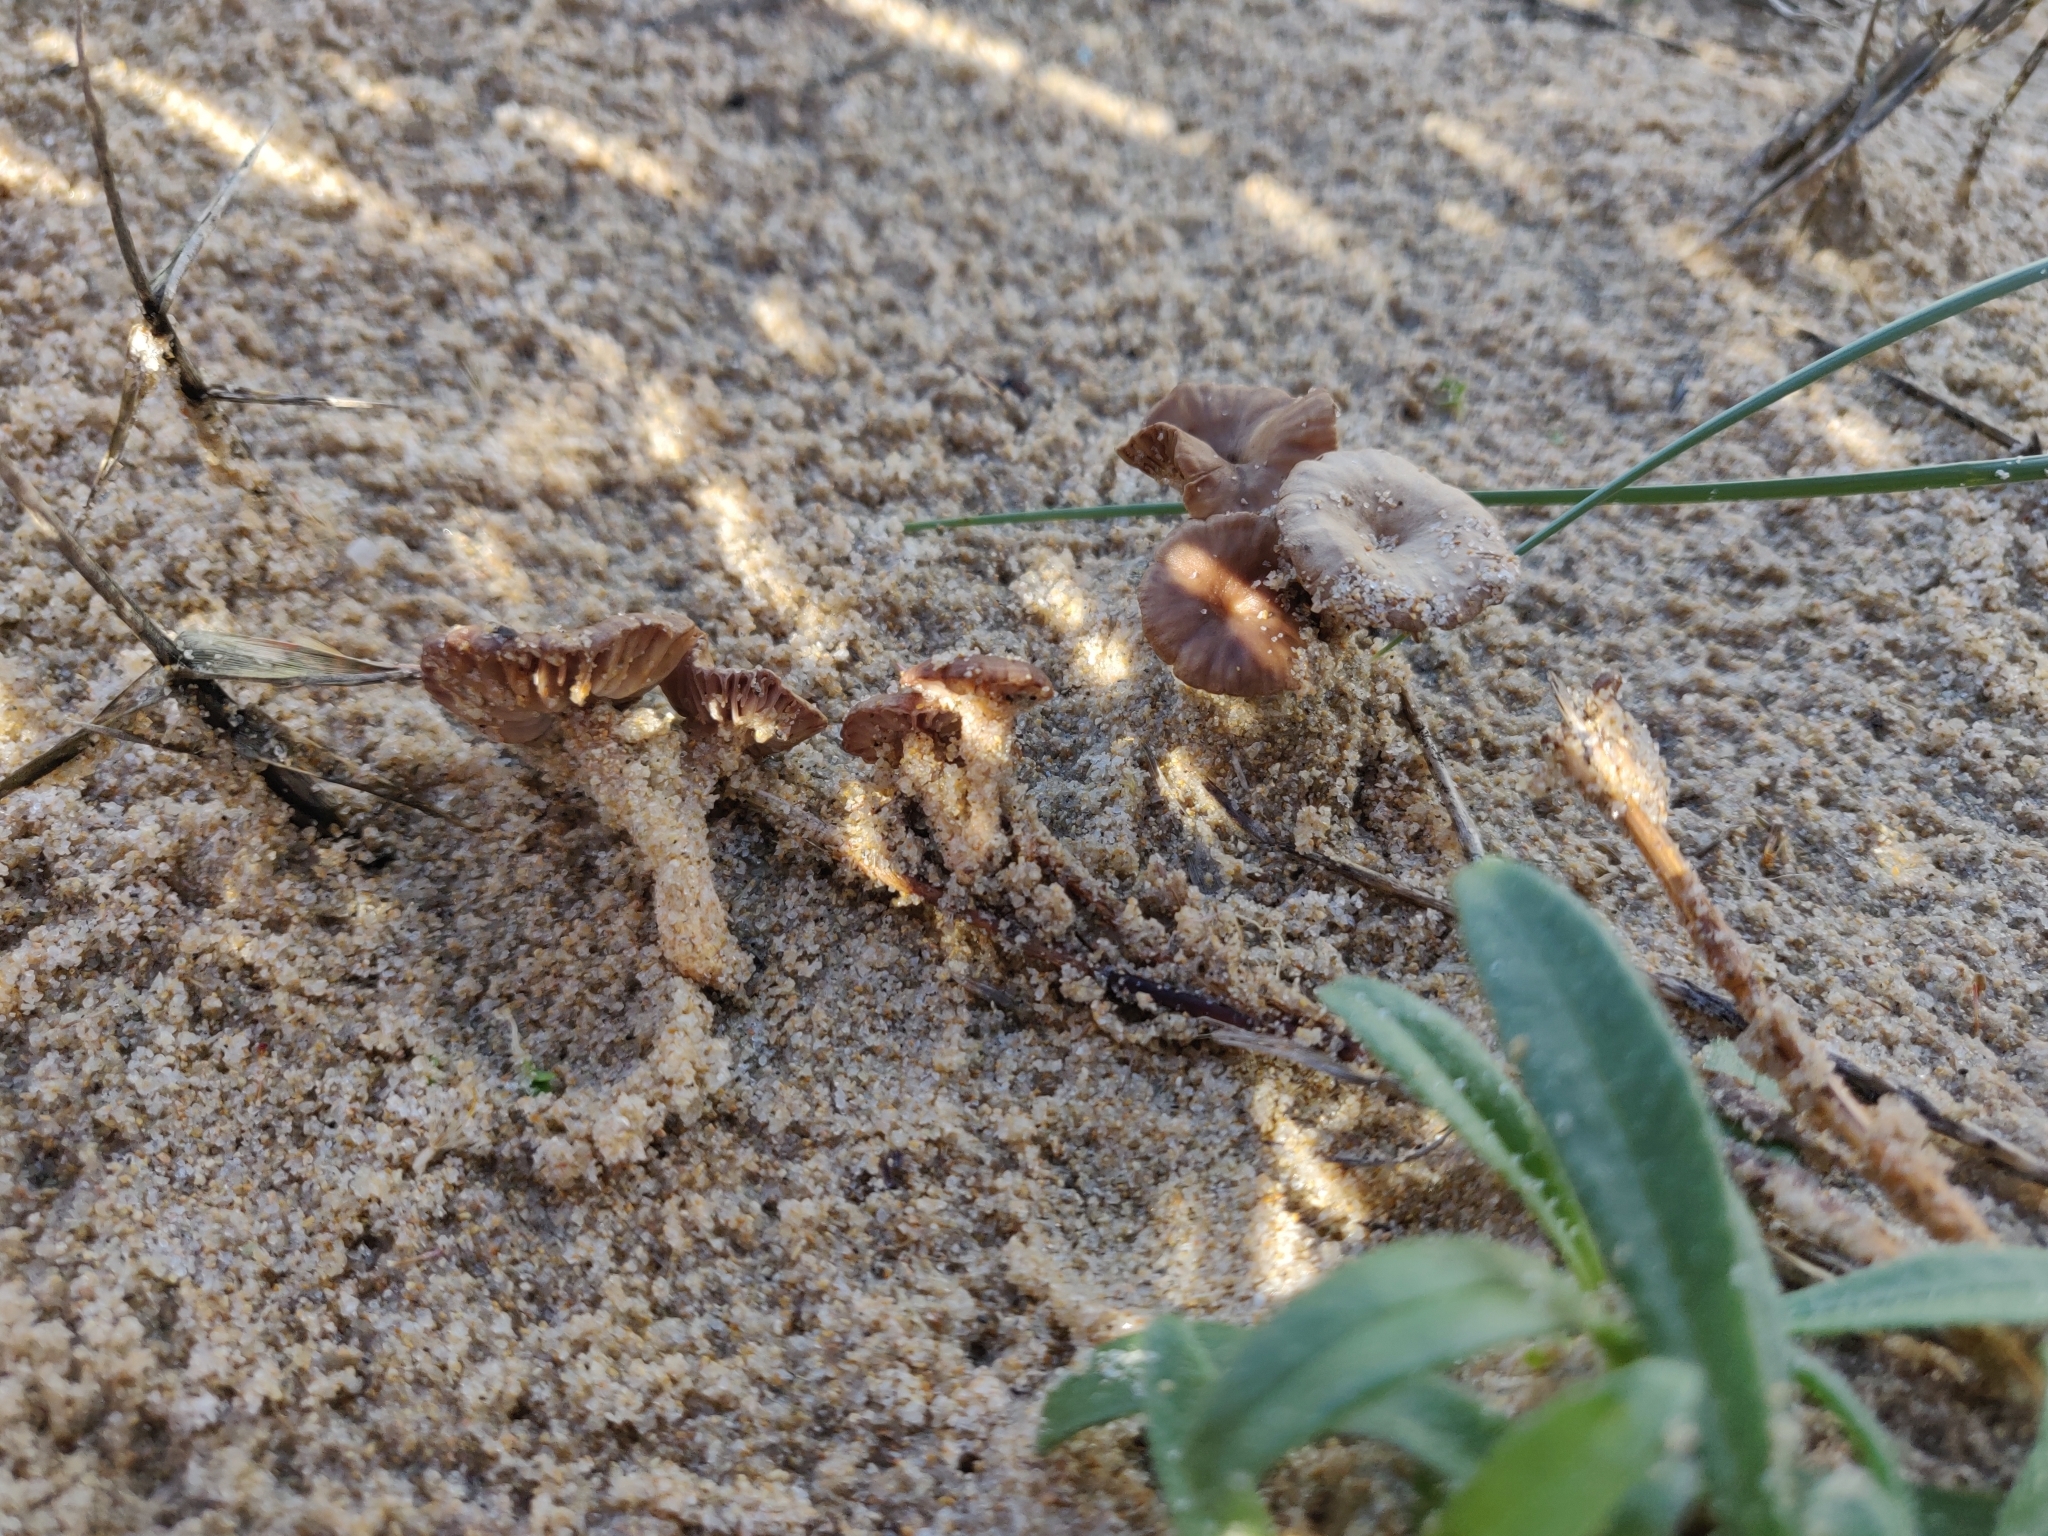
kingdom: Fungi
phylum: Basidiomycota
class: Agaricomycetes
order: Agaricales
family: Marasmiaceae
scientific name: Marasmiaceae
